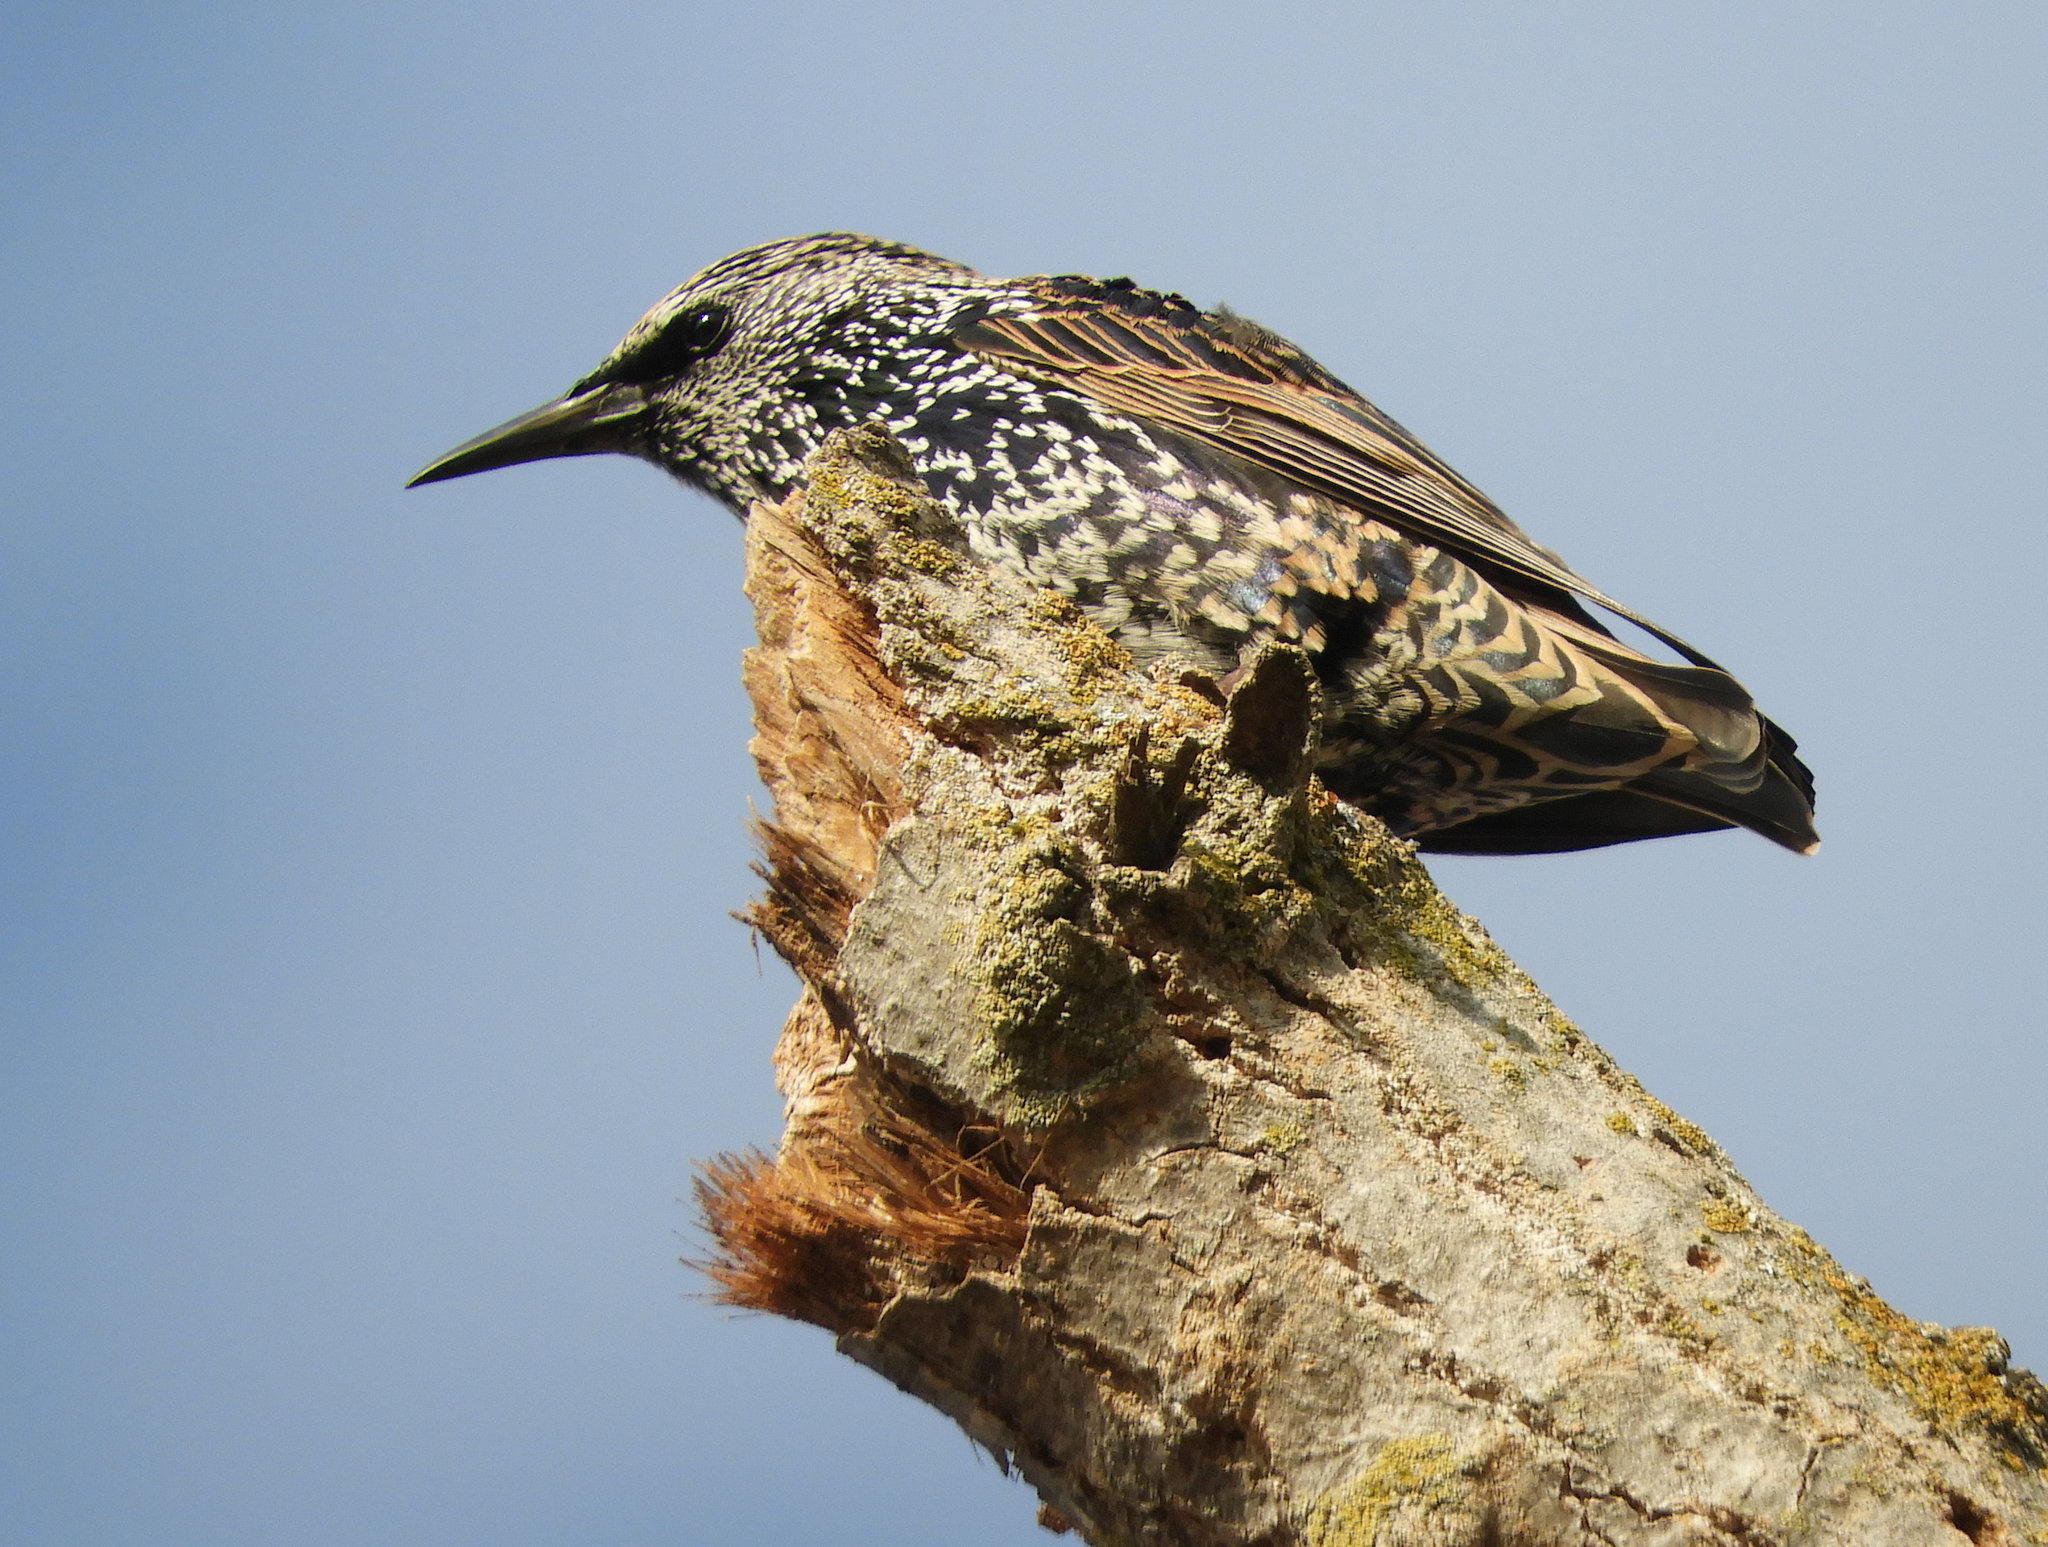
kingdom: Animalia
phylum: Chordata
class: Aves
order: Passeriformes
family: Sturnidae
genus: Sturnus
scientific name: Sturnus vulgaris
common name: Common starling
